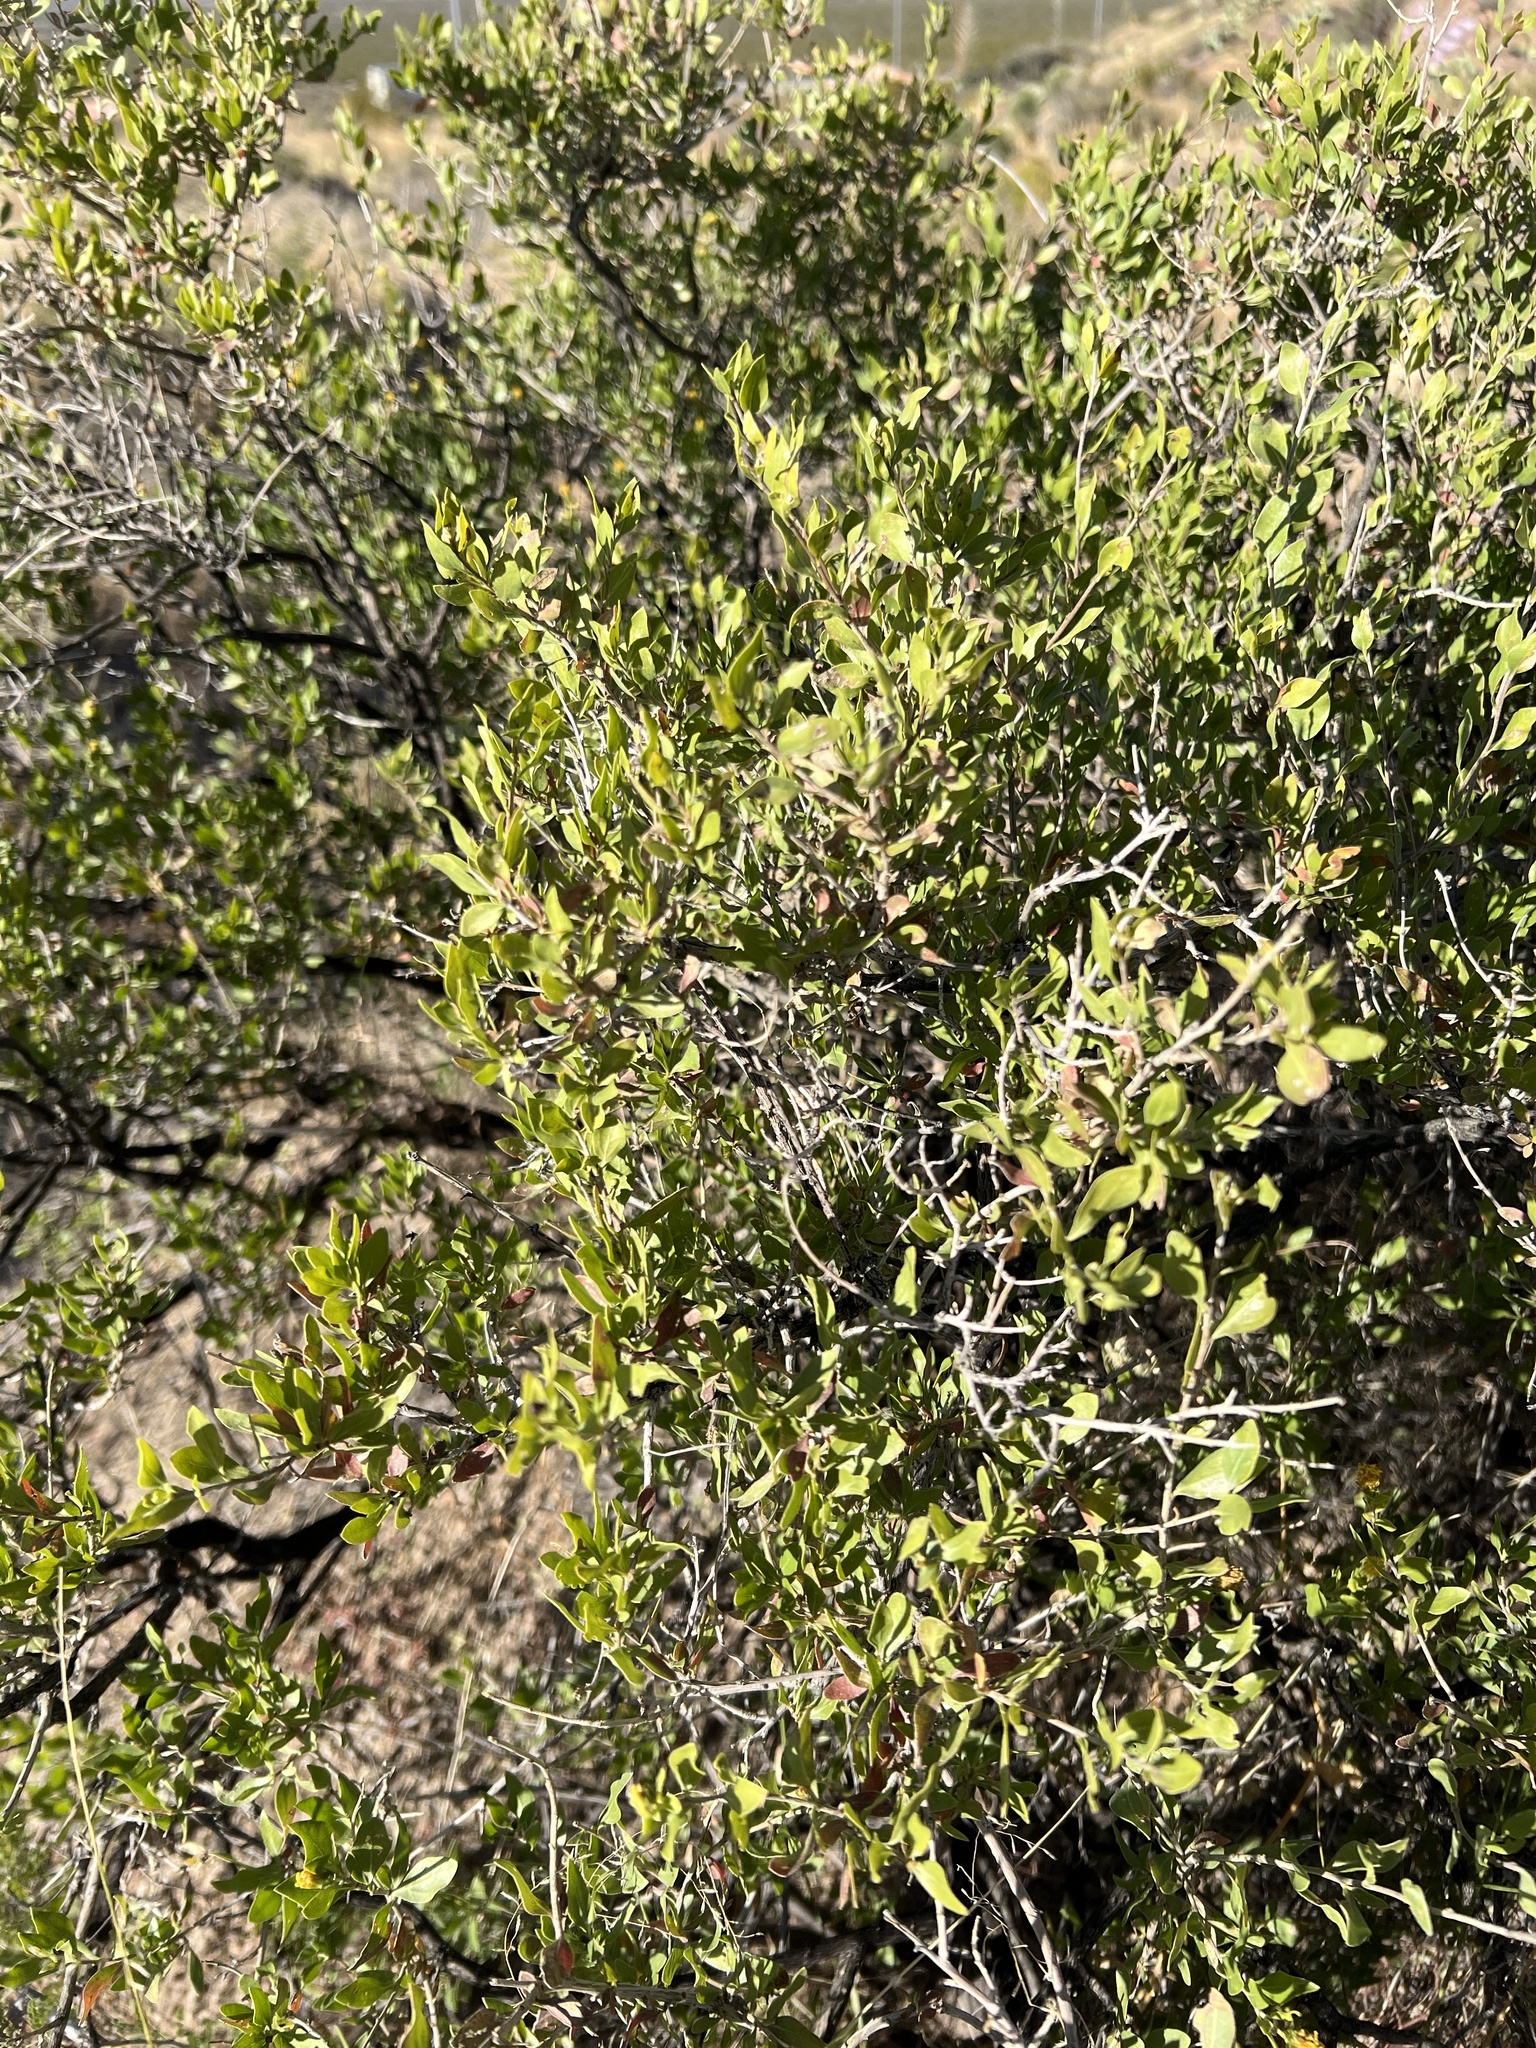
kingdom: Plantae
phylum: Tracheophyta
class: Magnoliopsida
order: Asterales
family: Asteraceae
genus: Flourensia
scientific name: Flourensia cernua
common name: Varnishbush
